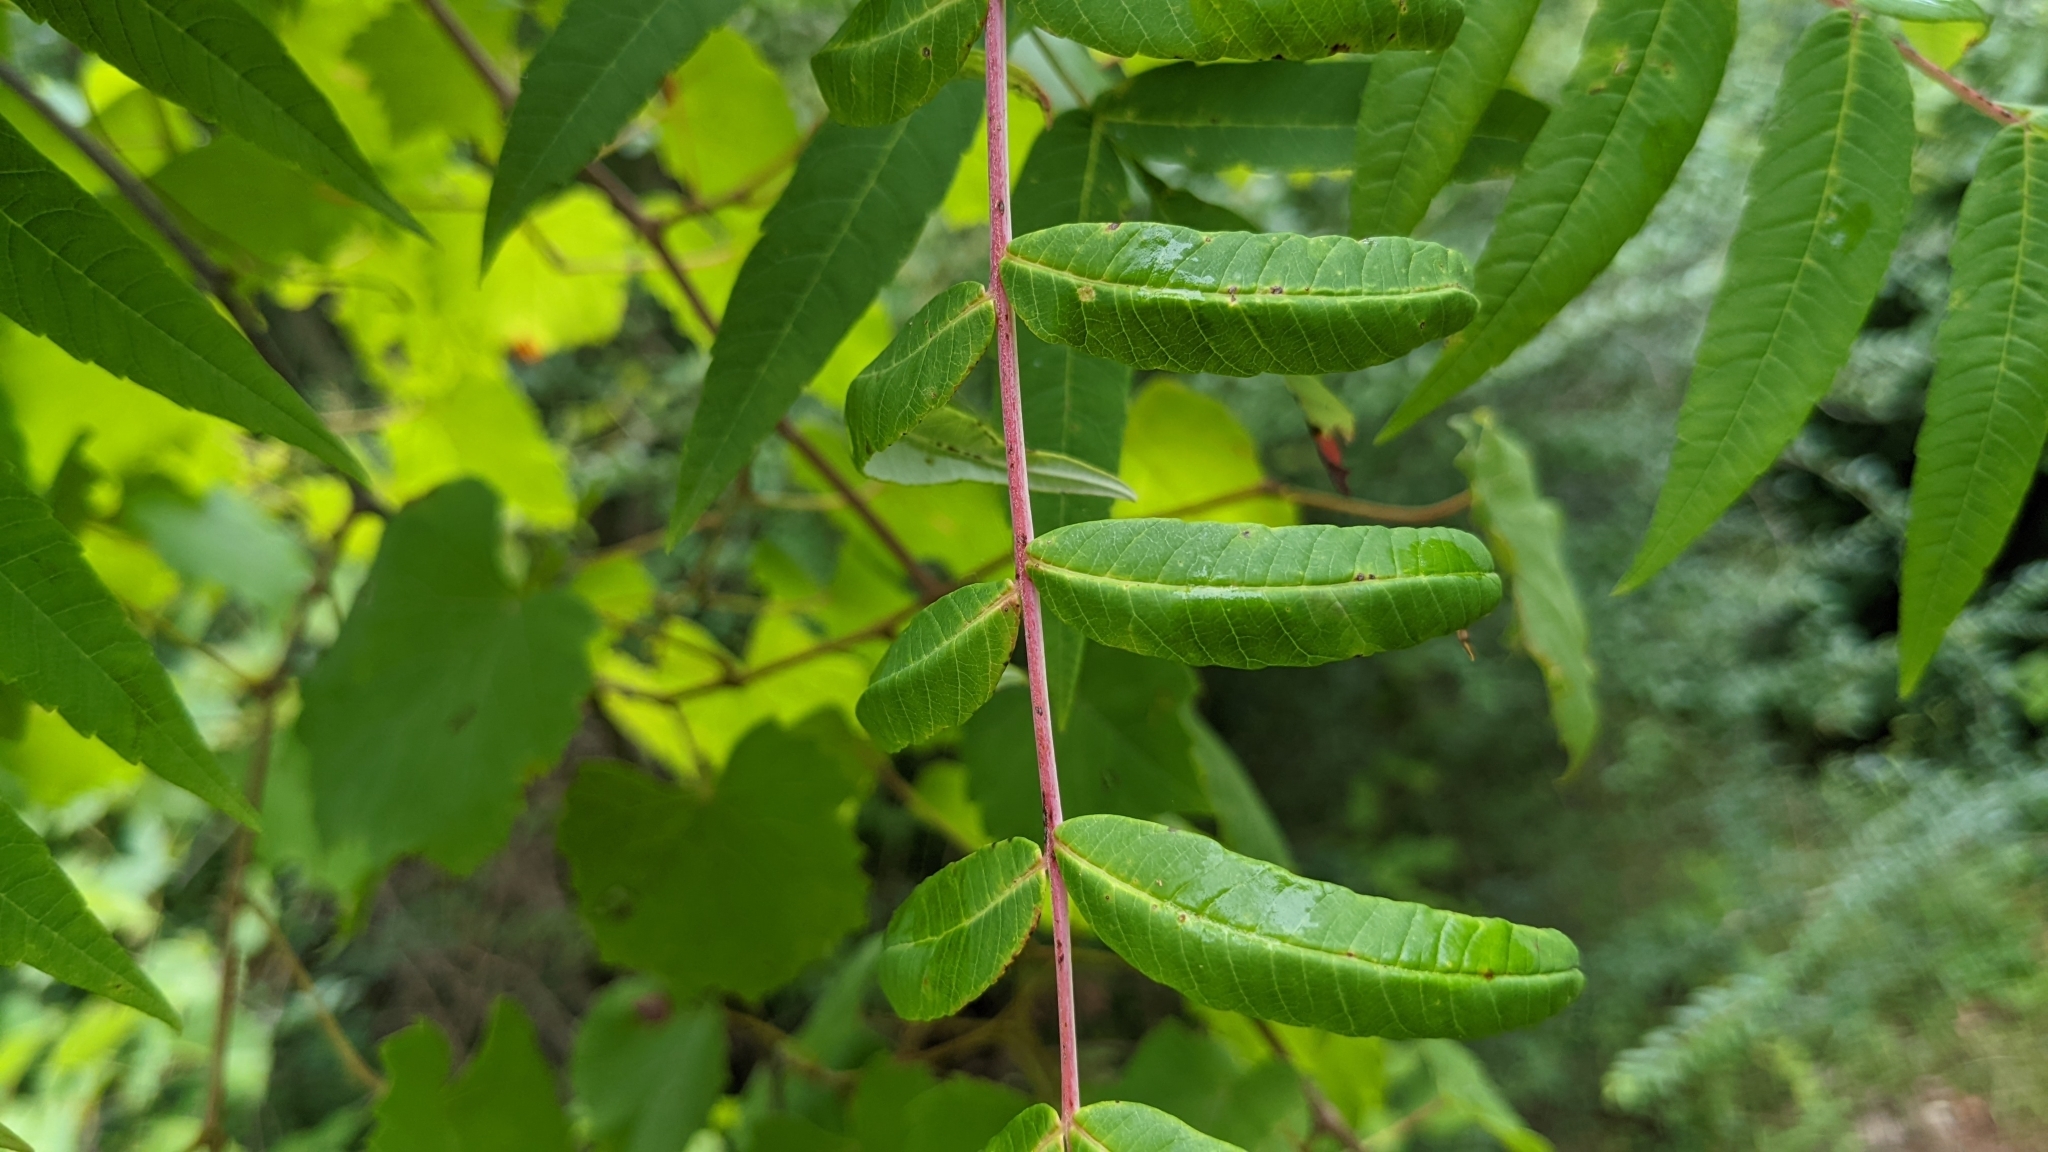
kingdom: Plantae
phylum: Tracheophyta
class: Magnoliopsida
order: Sapindales
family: Anacardiaceae
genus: Rhus
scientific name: Rhus glabra
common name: Scarlet sumac
